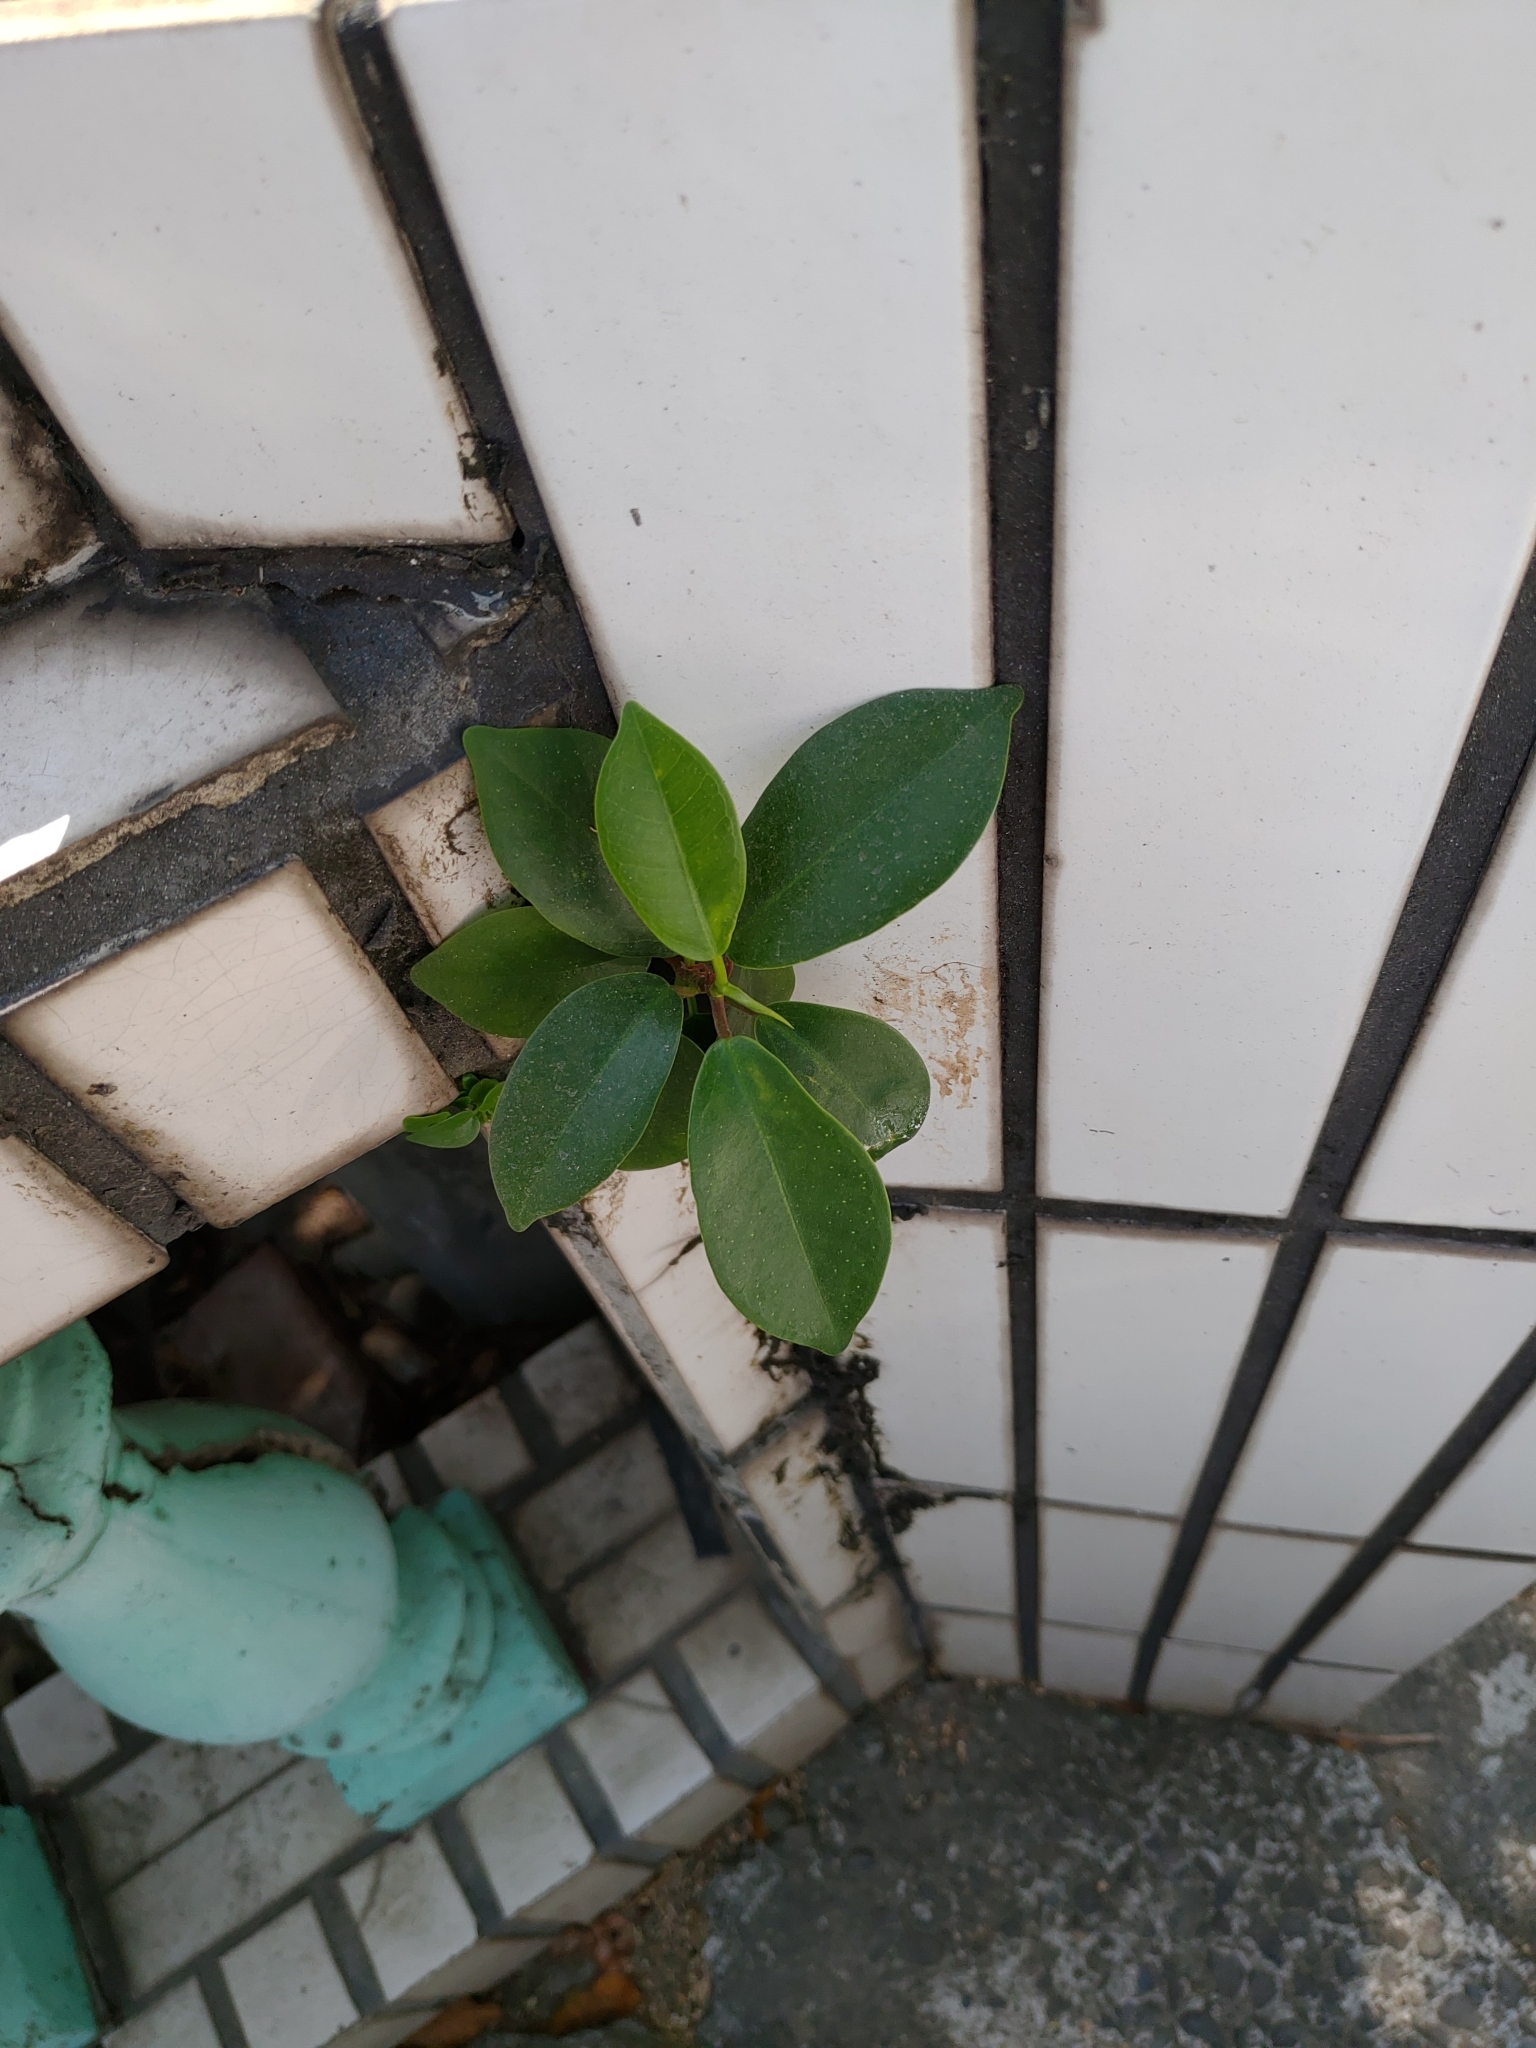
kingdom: Plantae
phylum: Tracheophyta
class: Magnoliopsida
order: Rosales
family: Moraceae
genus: Ficus
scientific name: Ficus microcarpa
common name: Chinese banyan
